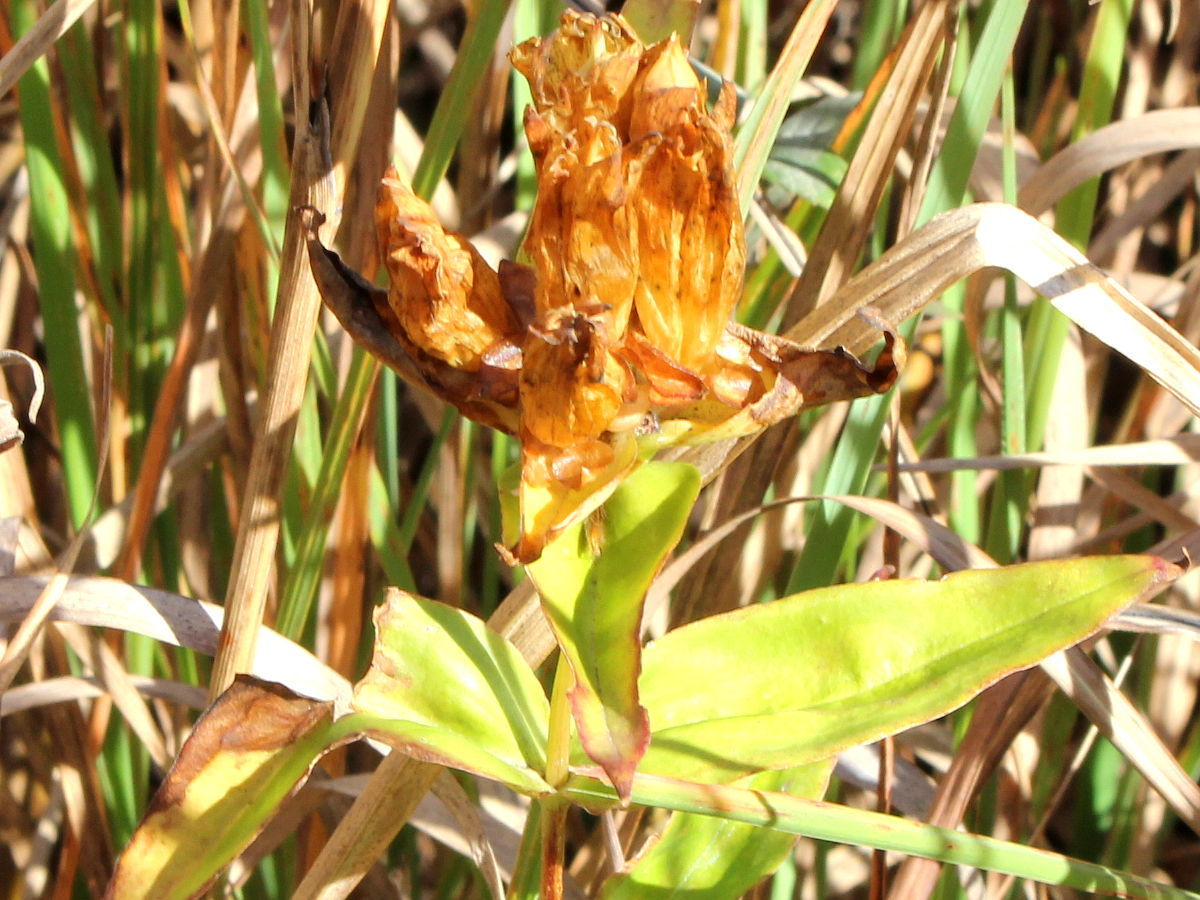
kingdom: Plantae
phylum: Tracheophyta
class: Magnoliopsida
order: Gentianales
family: Gentianaceae
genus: Gentiana
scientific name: Gentiana alba
